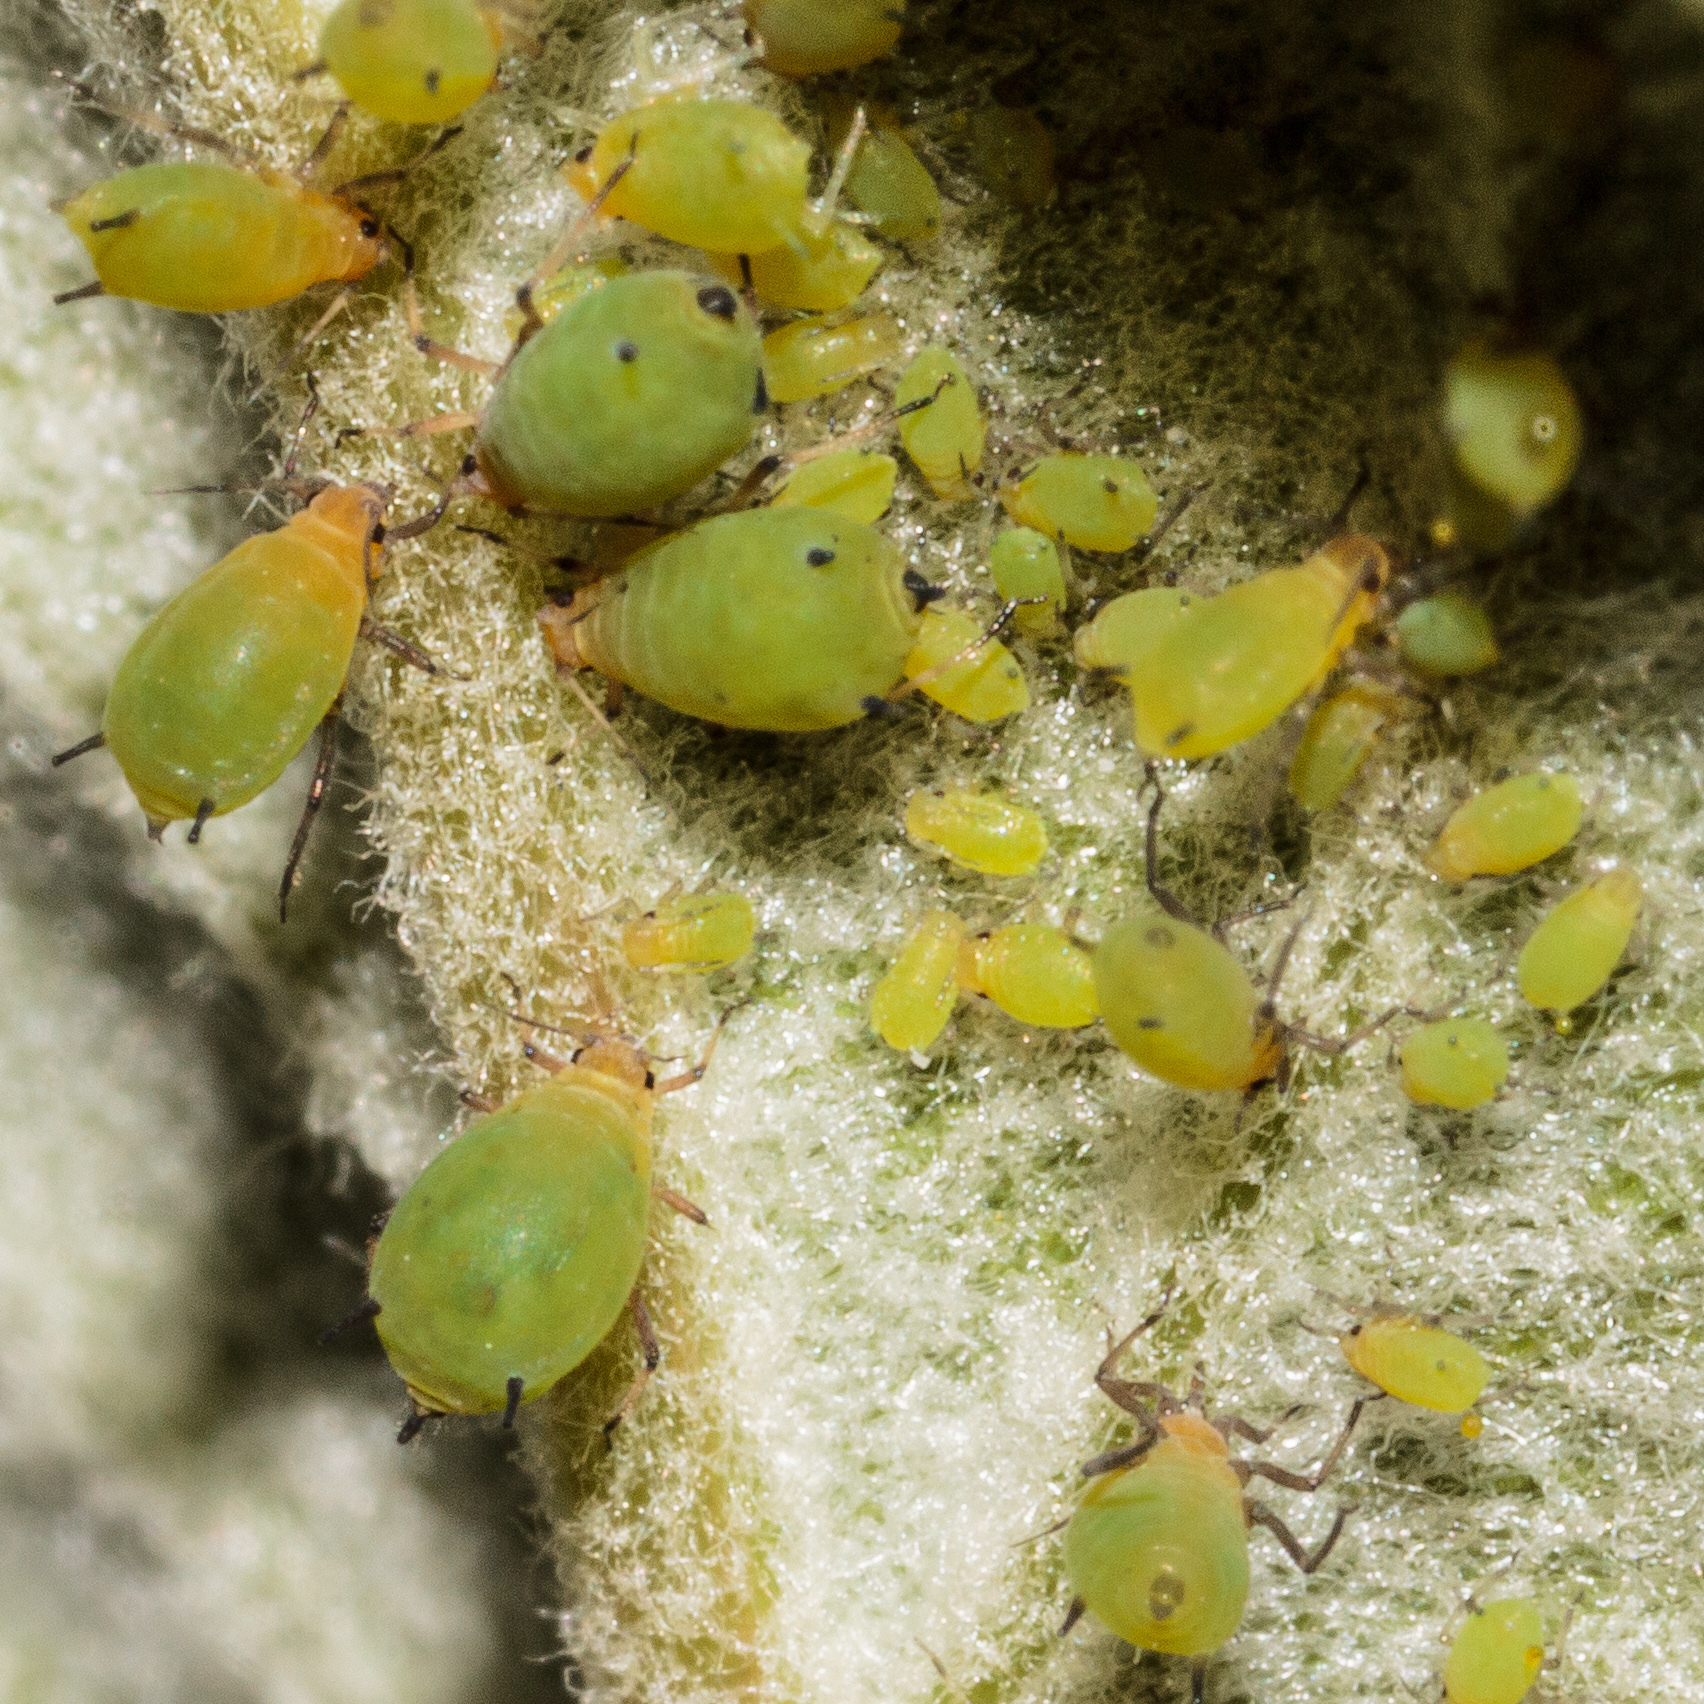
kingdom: Animalia
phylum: Arthropoda
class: Insecta
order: Hemiptera
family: Aphididae
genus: Aphis
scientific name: Aphis
